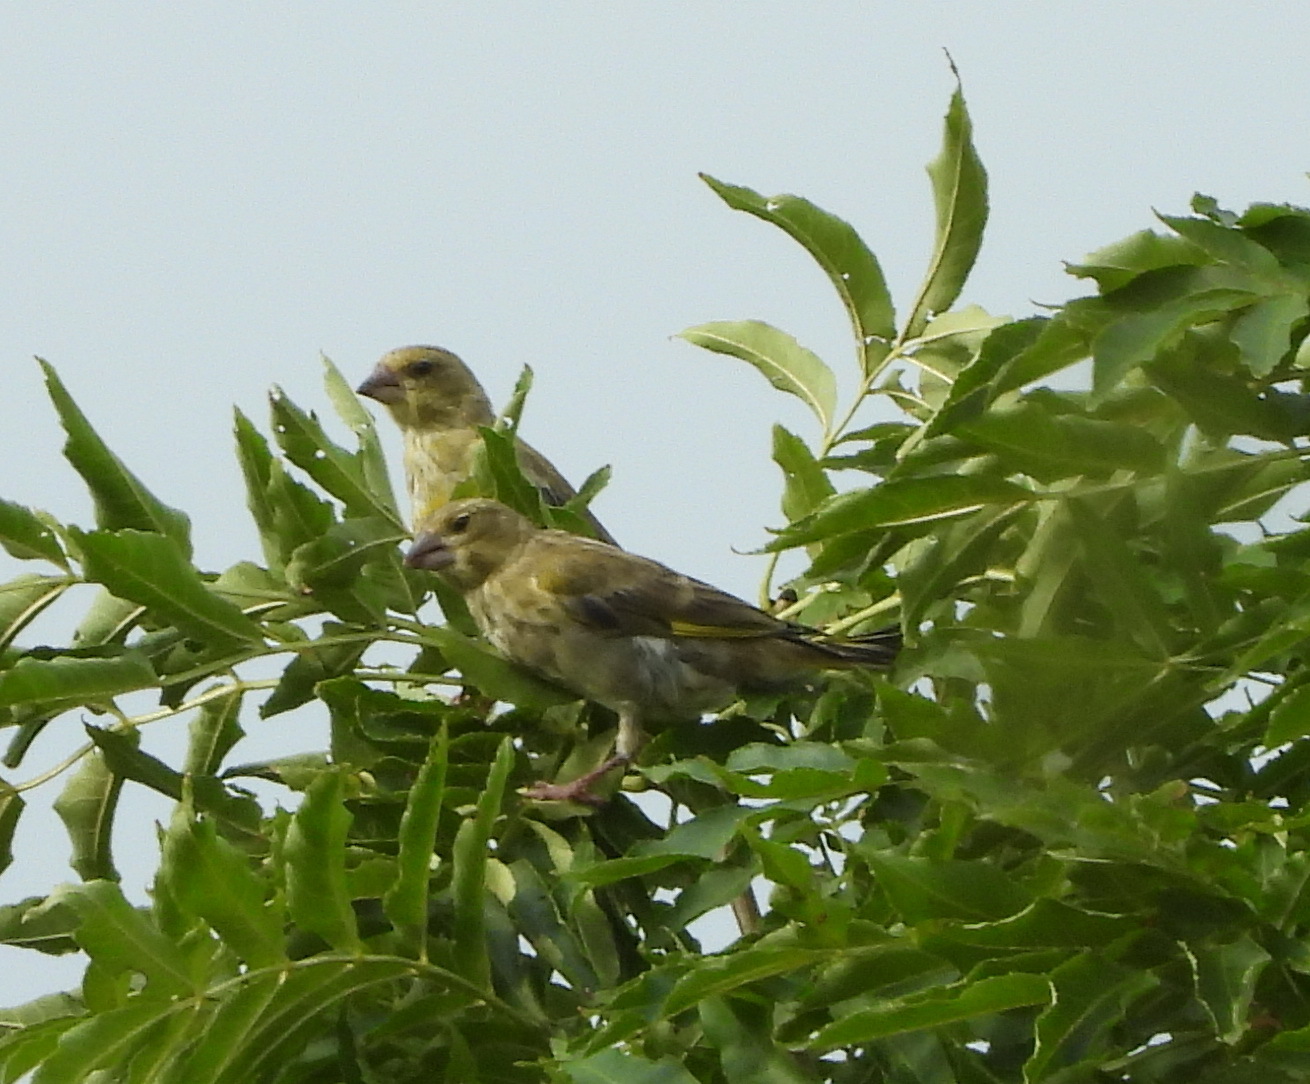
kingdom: Plantae
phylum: Tracheophyta
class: Liliopsida
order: Poales
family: Poaceae
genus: Chloris
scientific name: Chloris chloris
